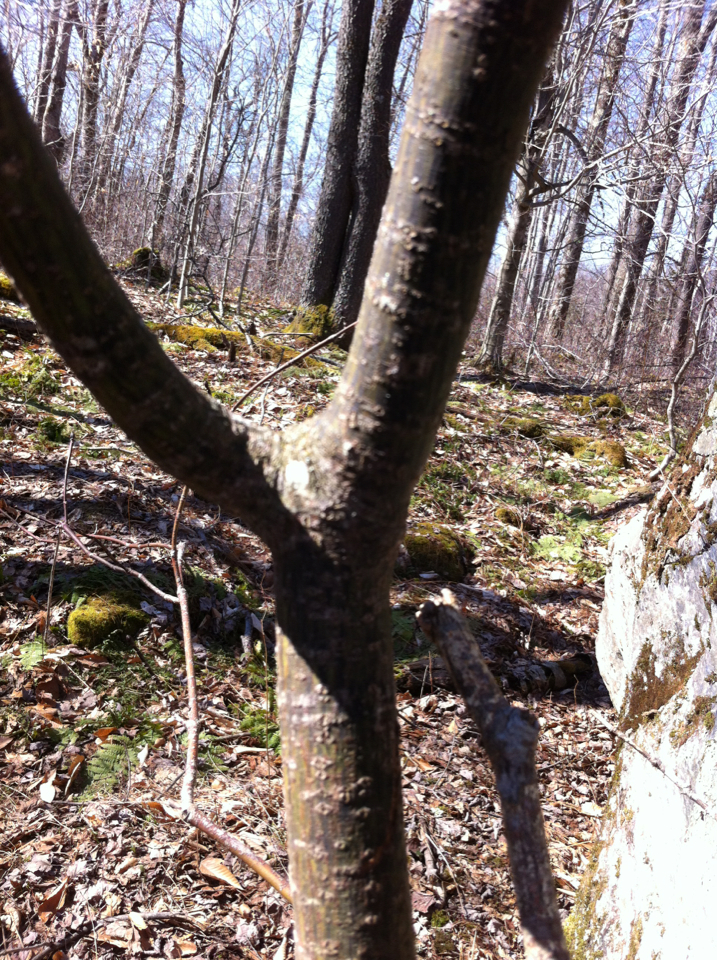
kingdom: Plantae
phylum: Tracheophyta
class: Magnoliopsida
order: Sapindales
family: Sapindaceae
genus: Acer
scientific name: Acer pensylvanicum
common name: Moosewood
